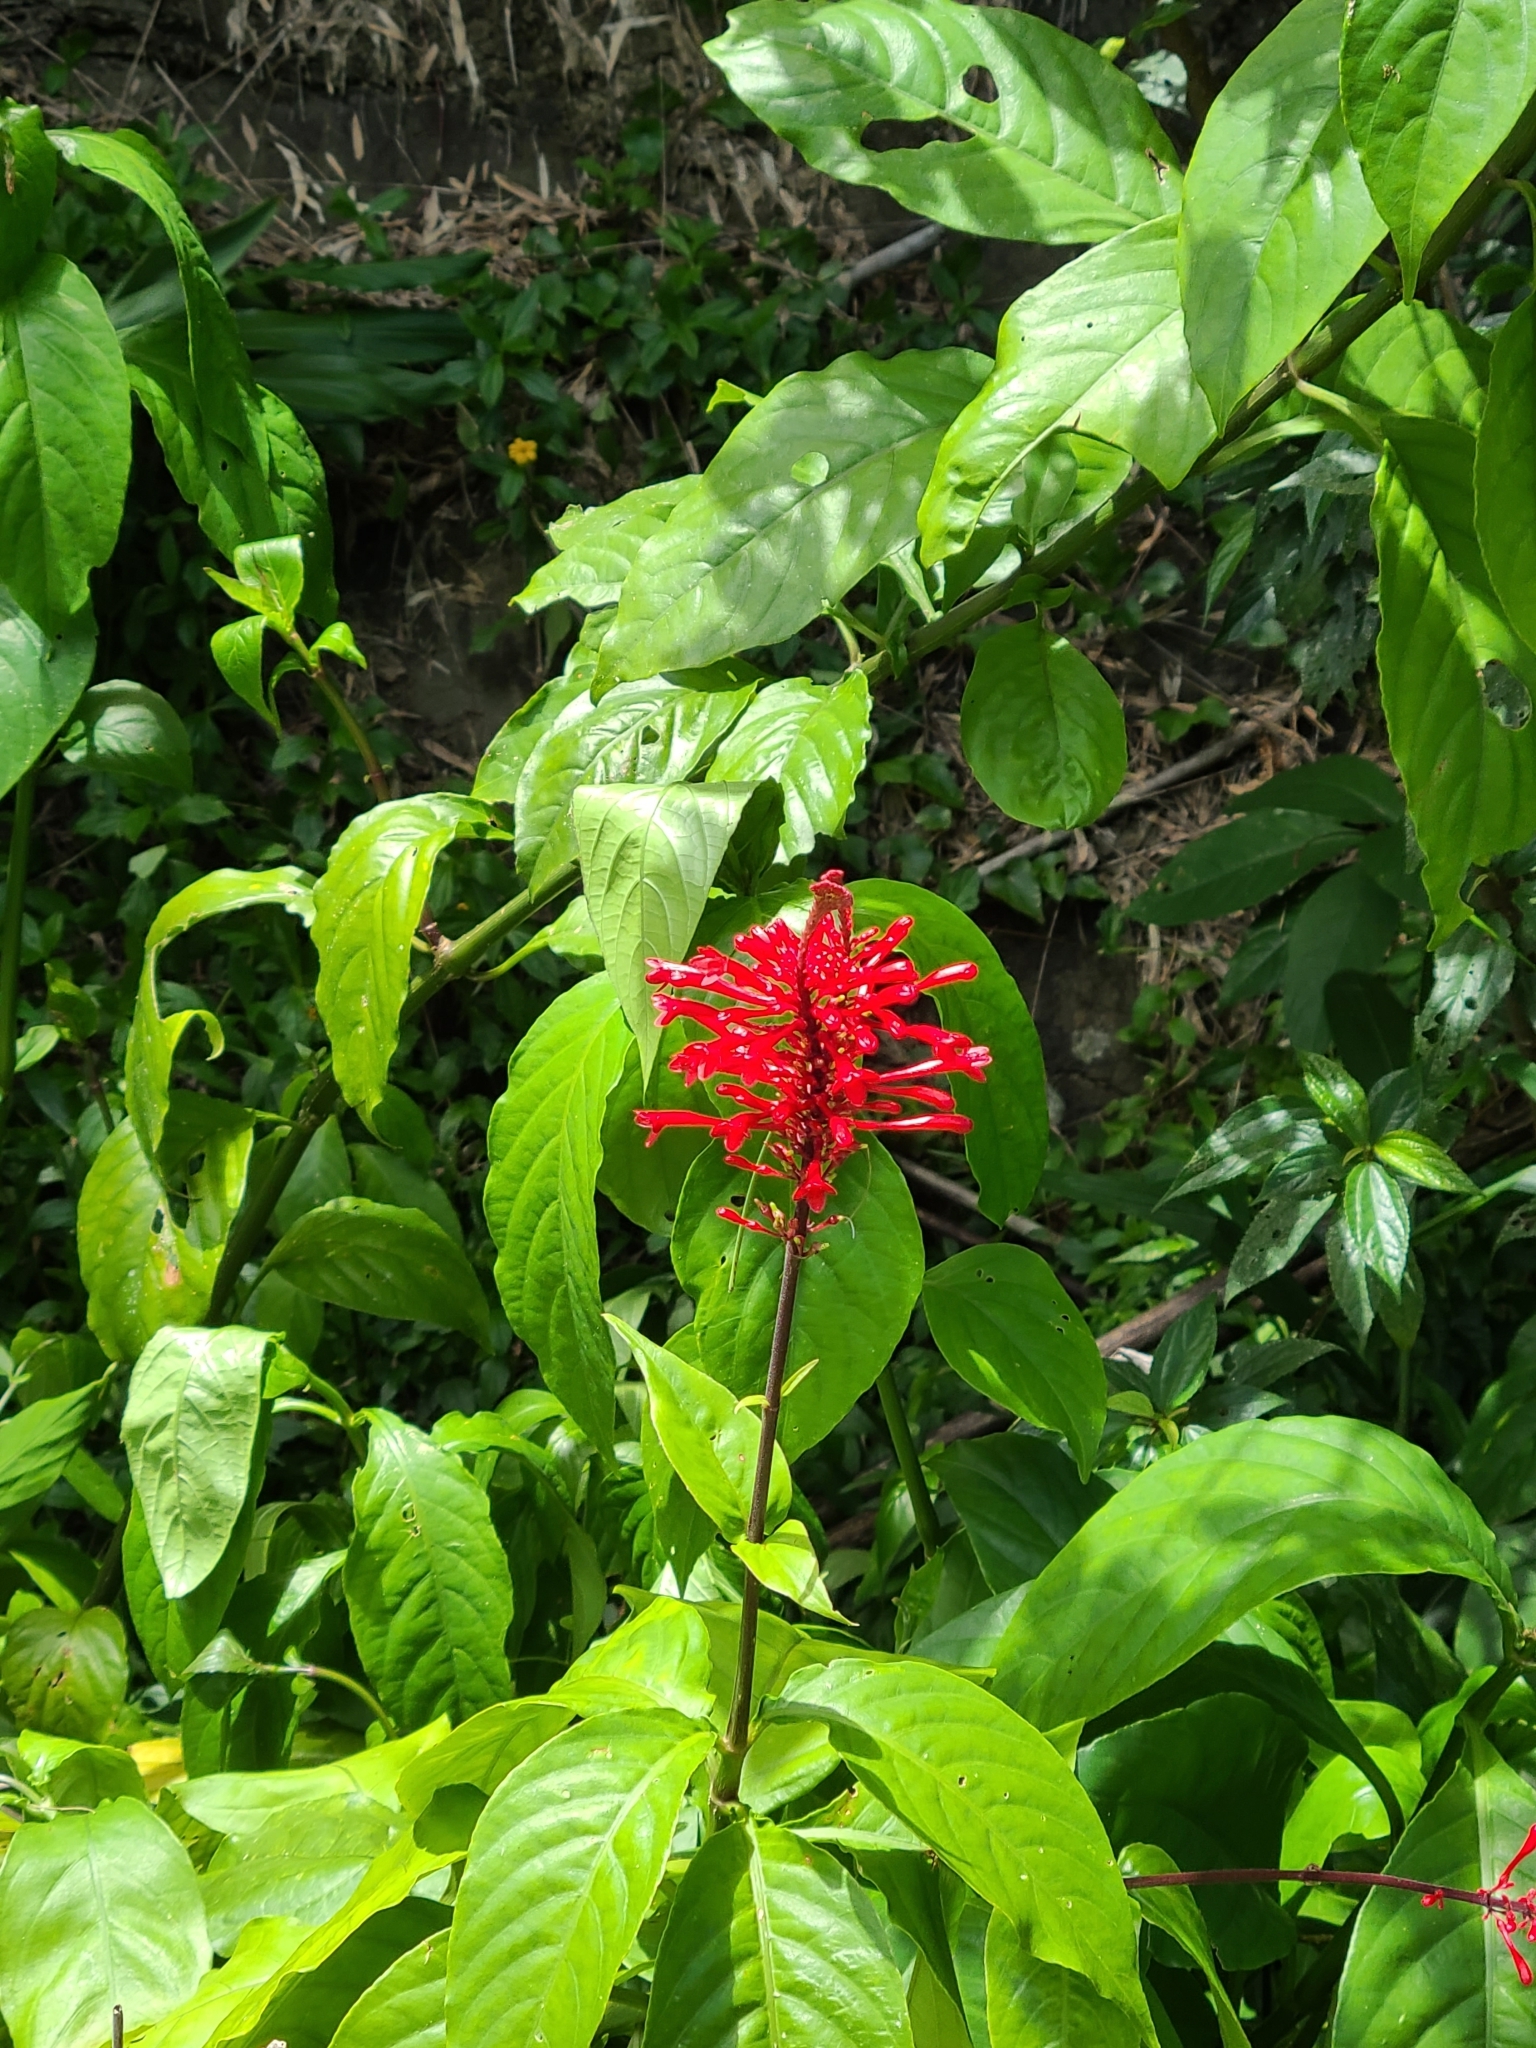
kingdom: Plantae
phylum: Tracheophyta
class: Magnoliopsida
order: Lamiales
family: Acanthaceae
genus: Odontonema
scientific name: Odontonema tubaeforme
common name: Firespike
